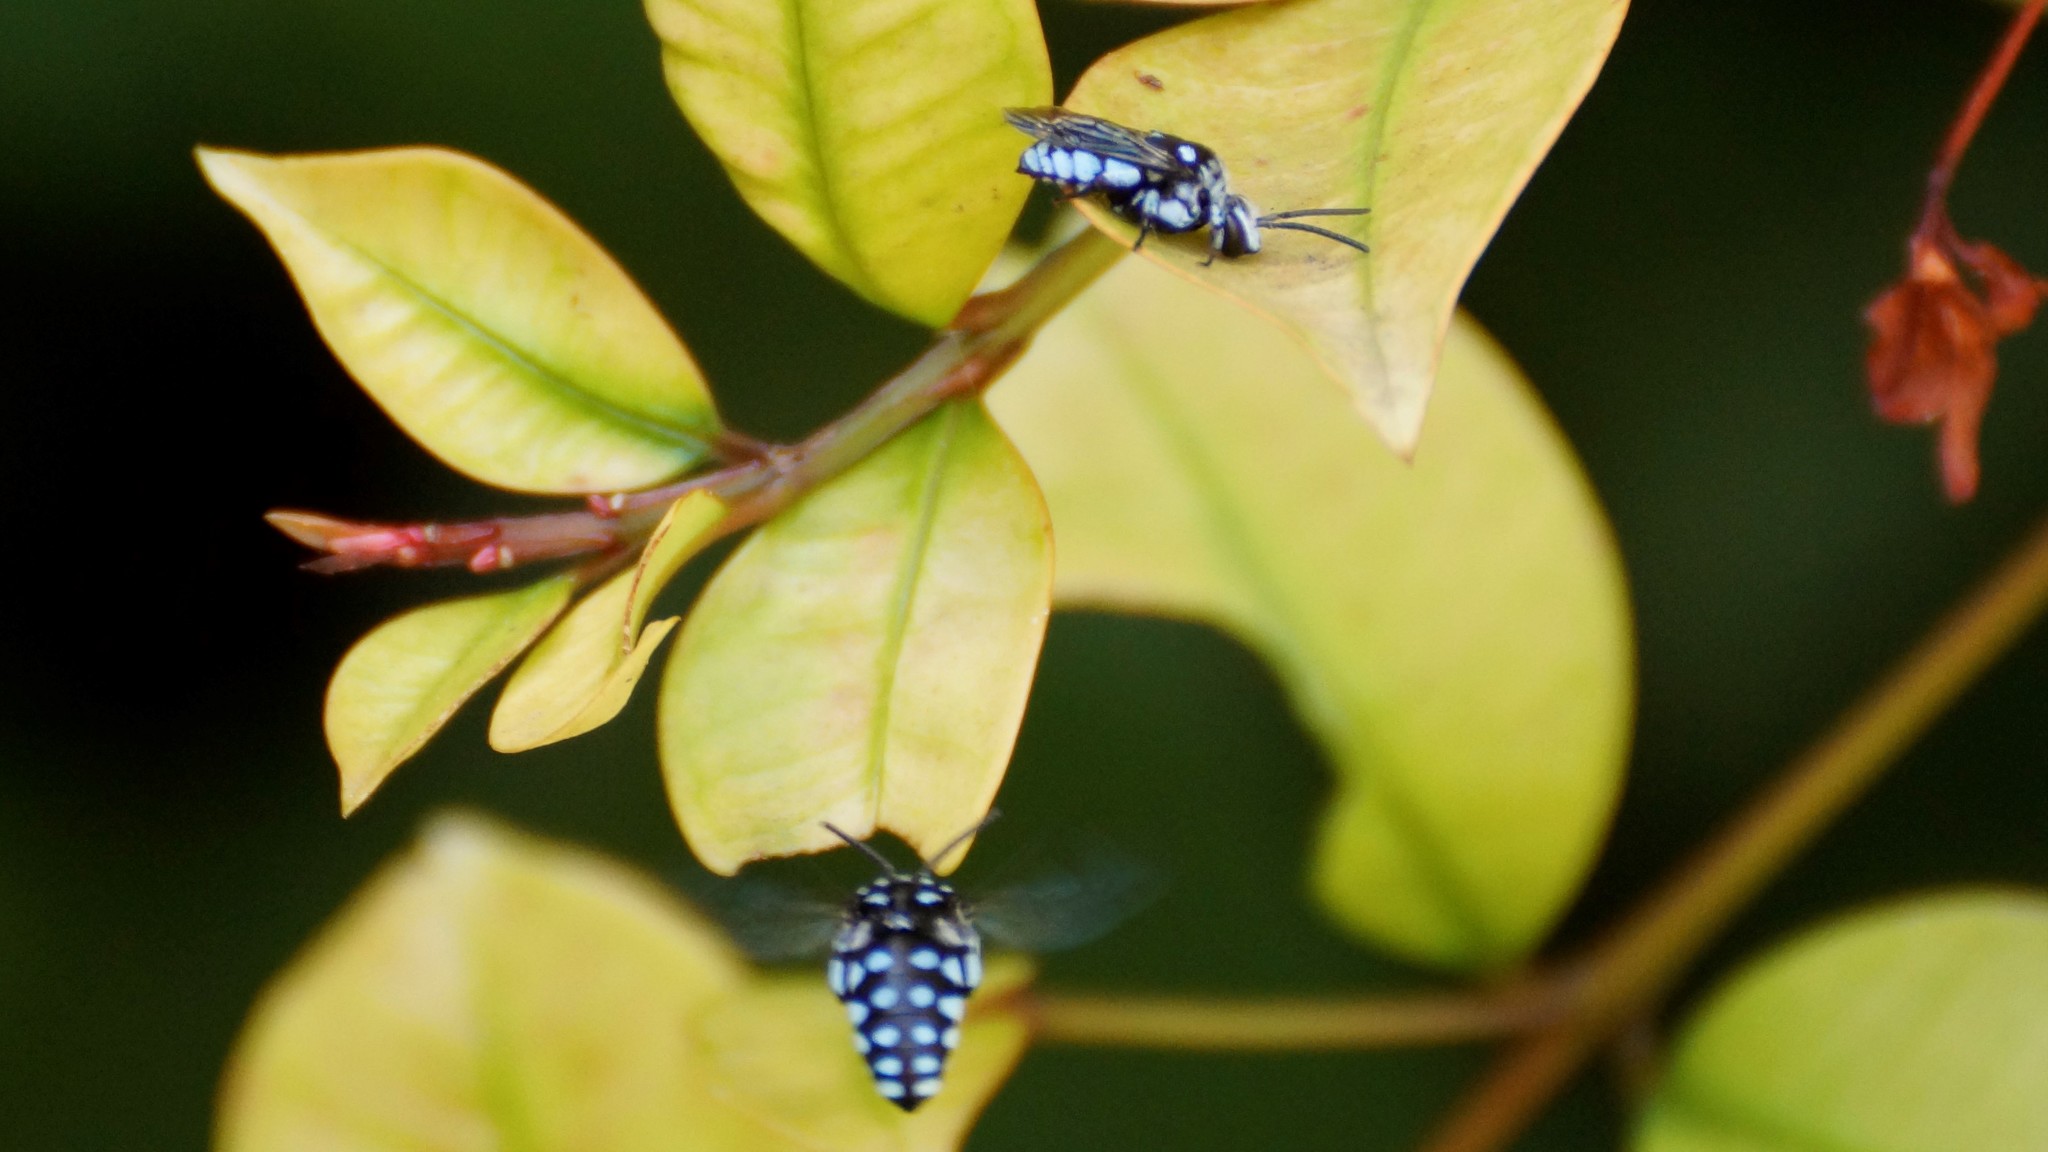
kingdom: Animalia
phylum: Arthropoda
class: Insecta
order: Hymenoptera
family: Apidae
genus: Thyreus
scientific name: Thyreus caeruleopunctatus
